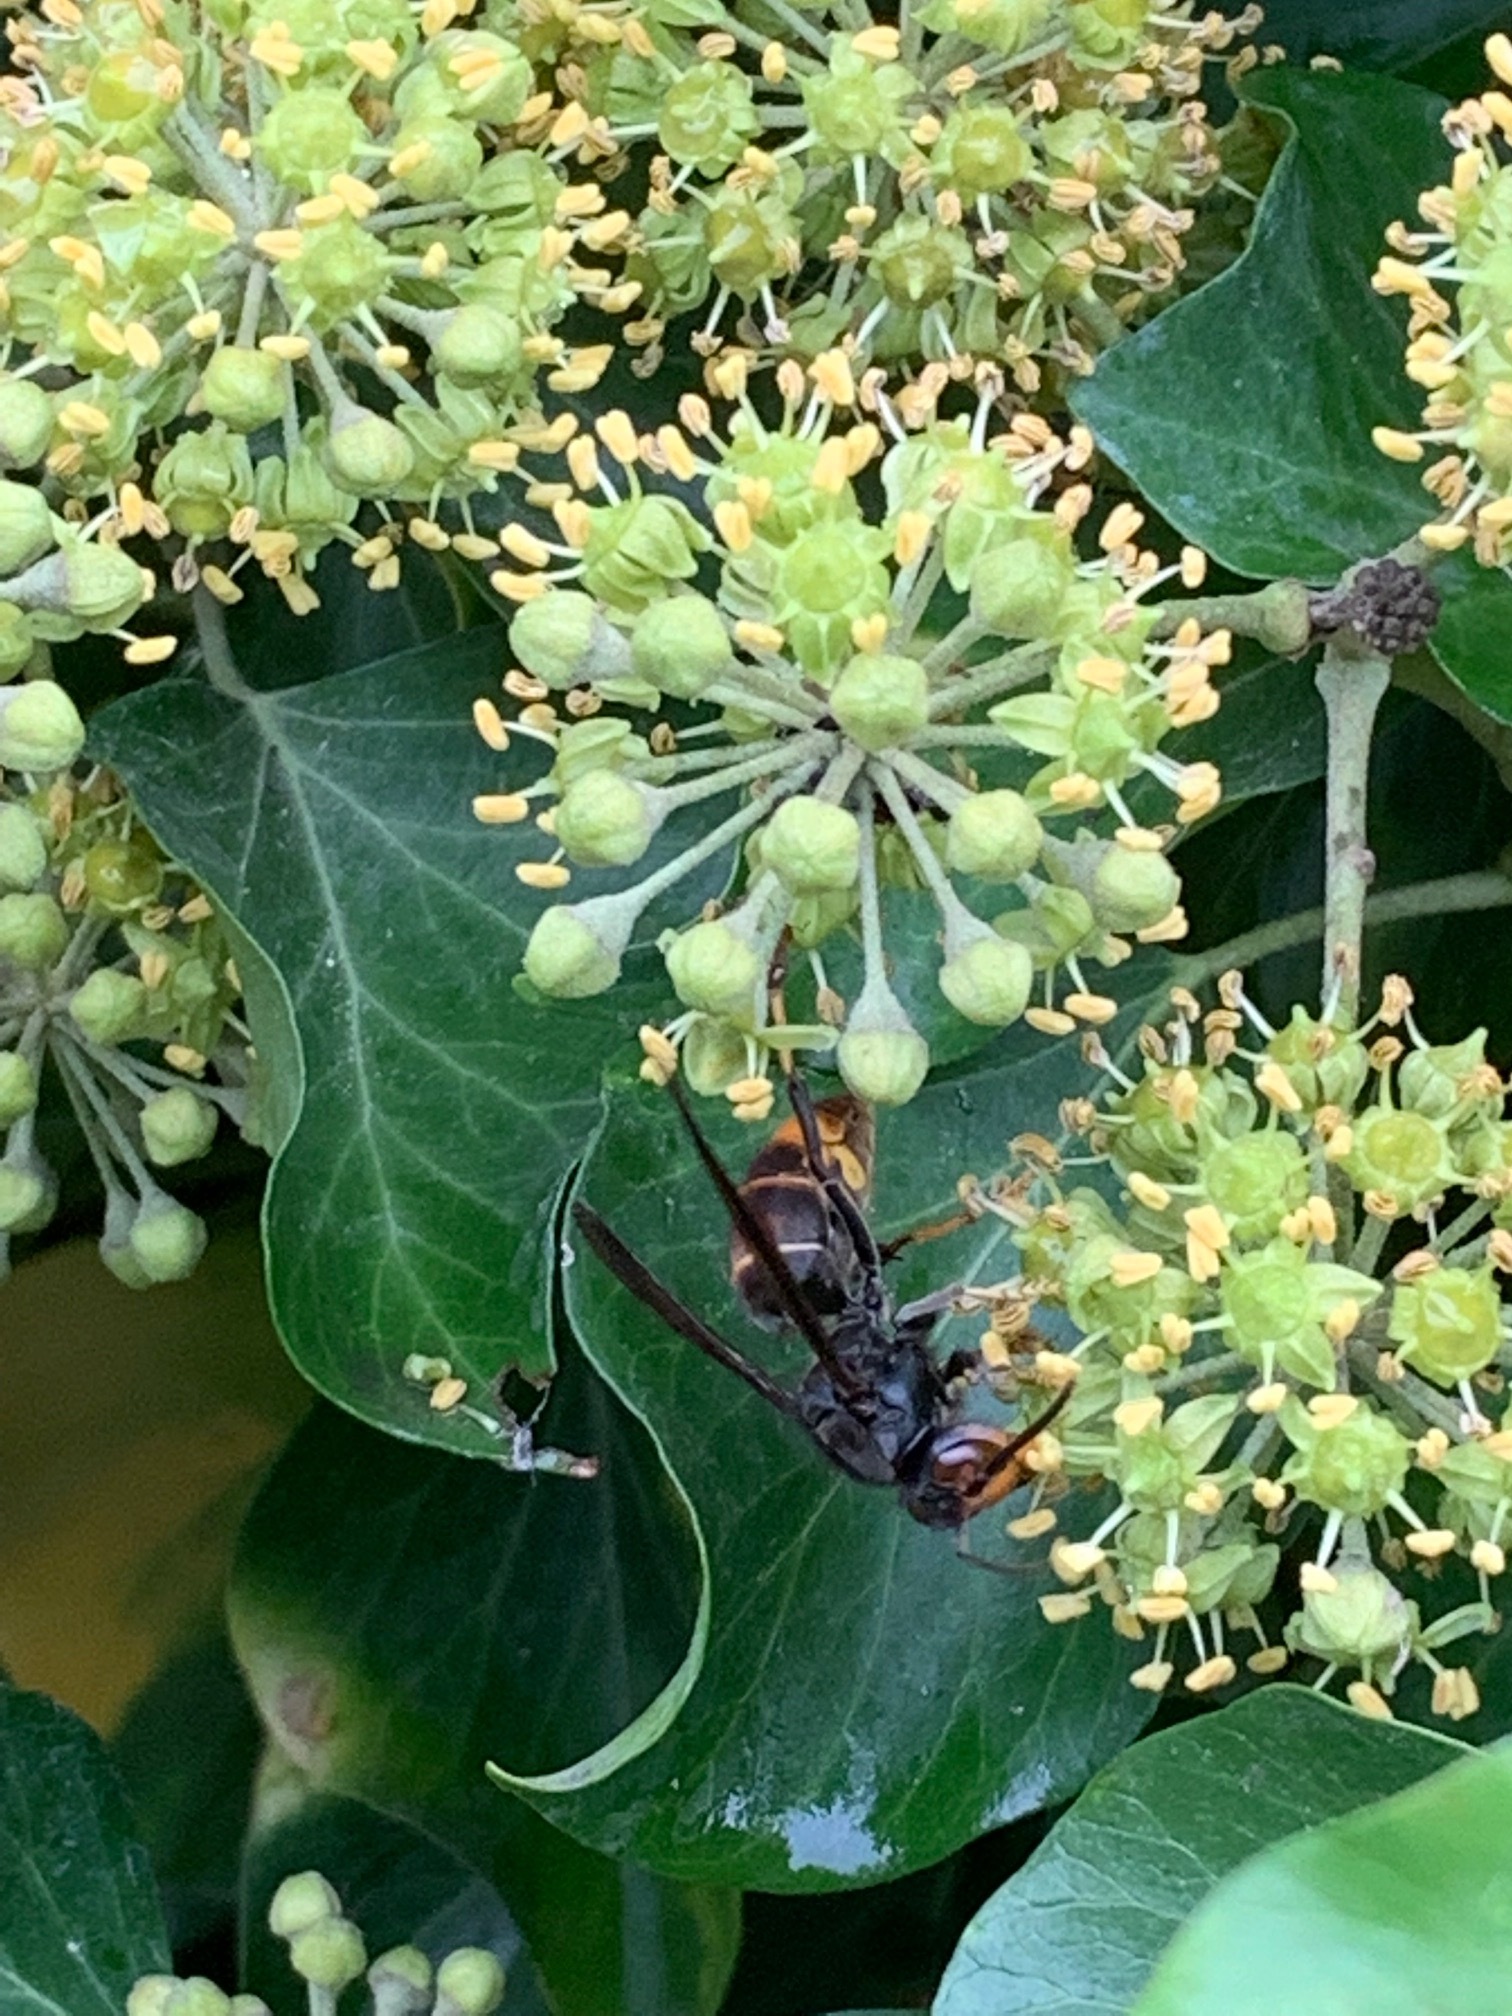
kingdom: Animalia
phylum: Arthropoda
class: Insecta
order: Hymenoptera
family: Vespidae
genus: Vespa
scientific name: Vespa velutina
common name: Asian hornet
